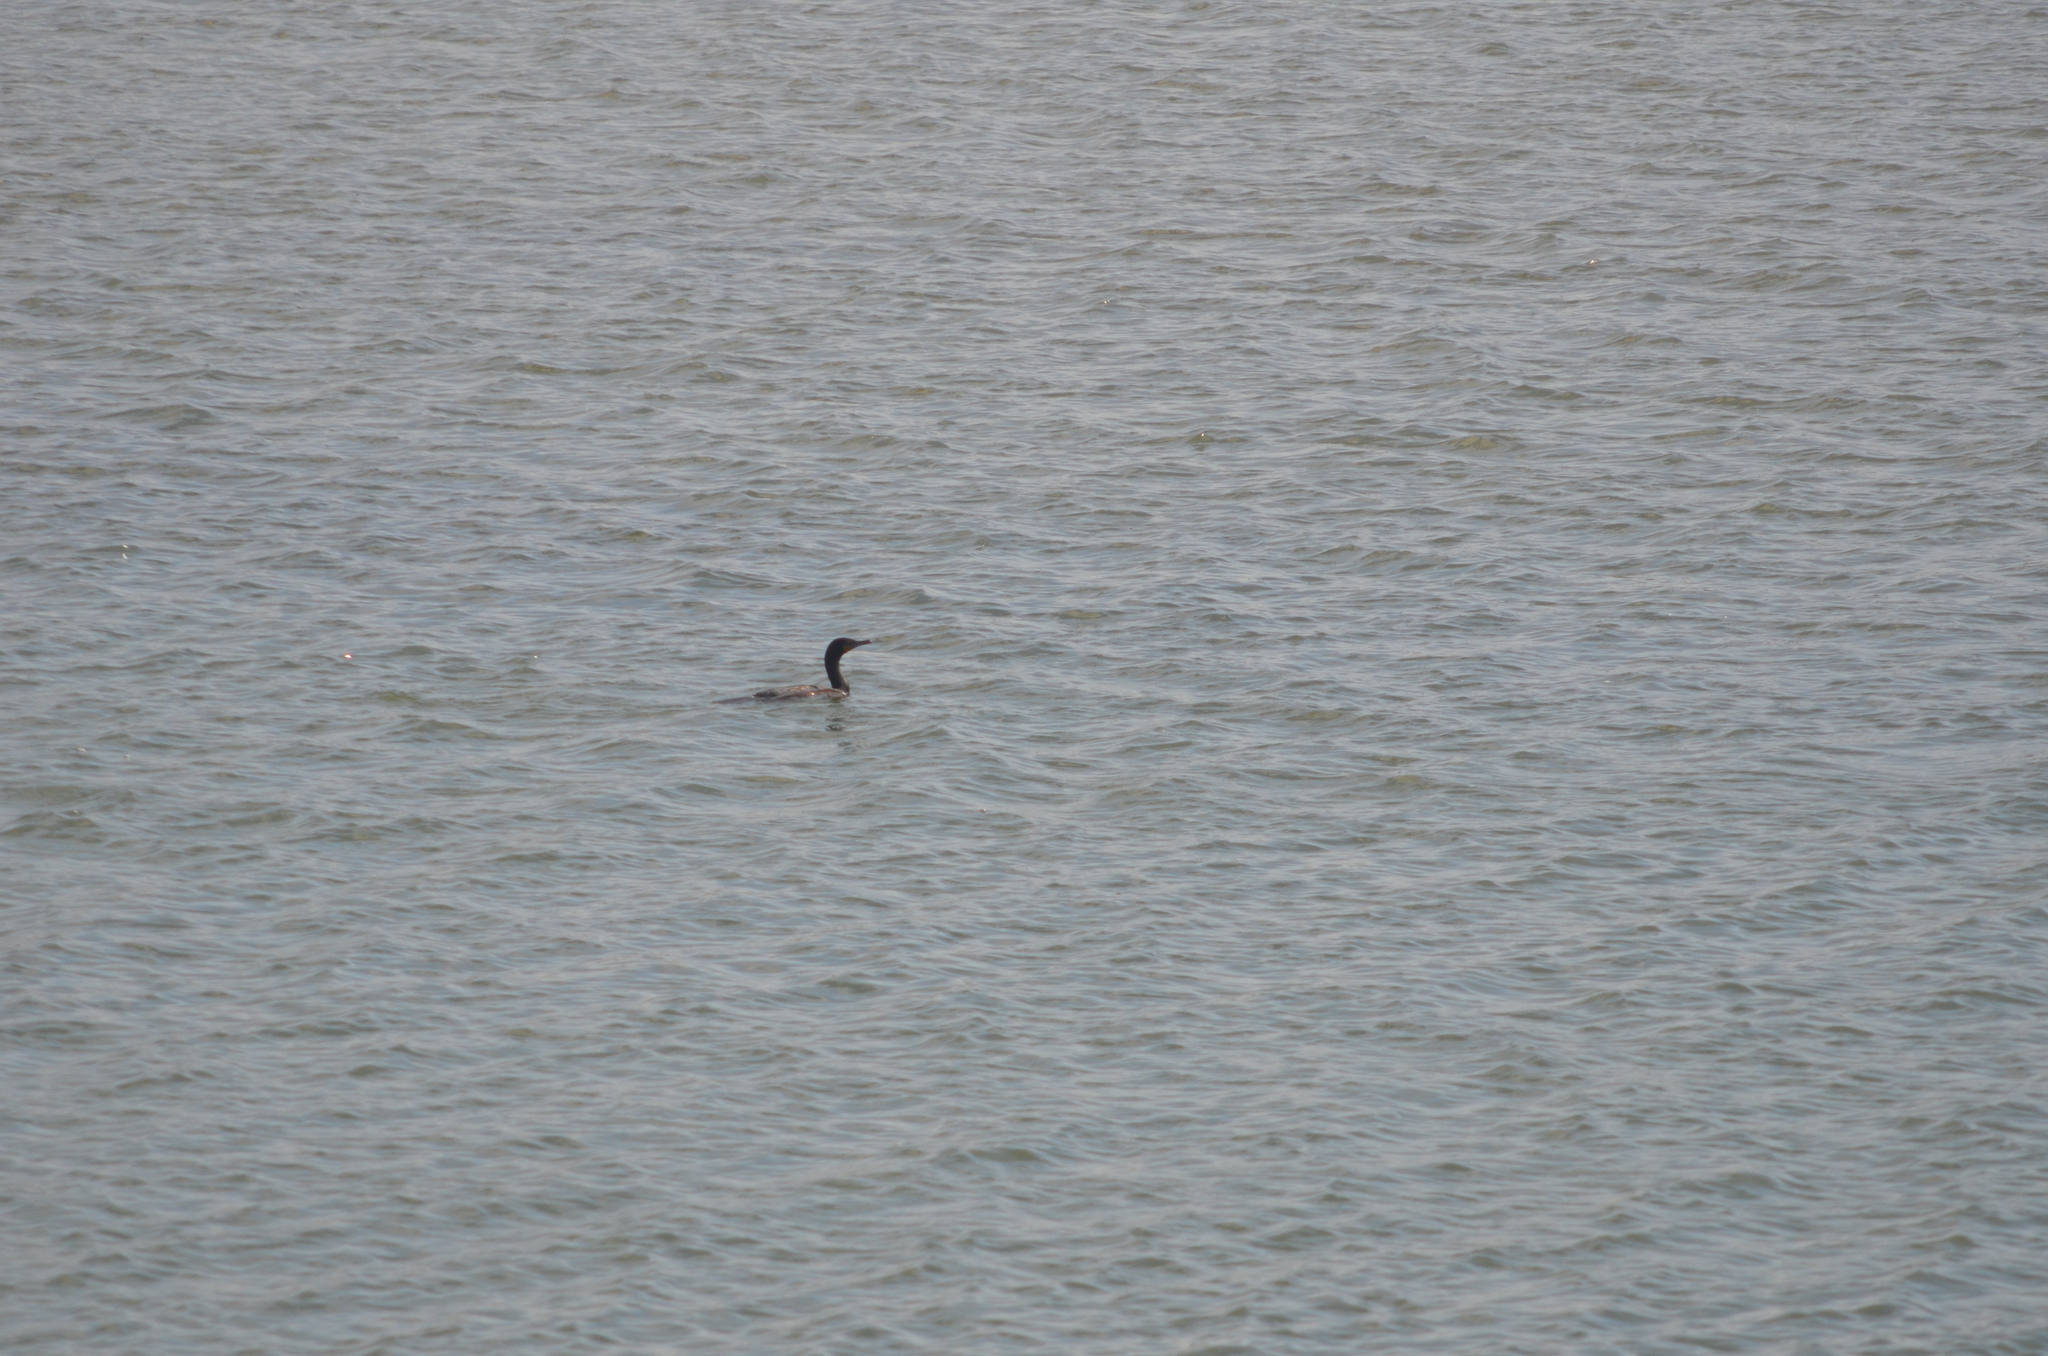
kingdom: Animalia
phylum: Chordata
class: Aves
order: Suliformes
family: Phalacrocoracidae
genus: Phalacrocorax
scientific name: Phalacrocorax auritus
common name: Double-crested cormorant
